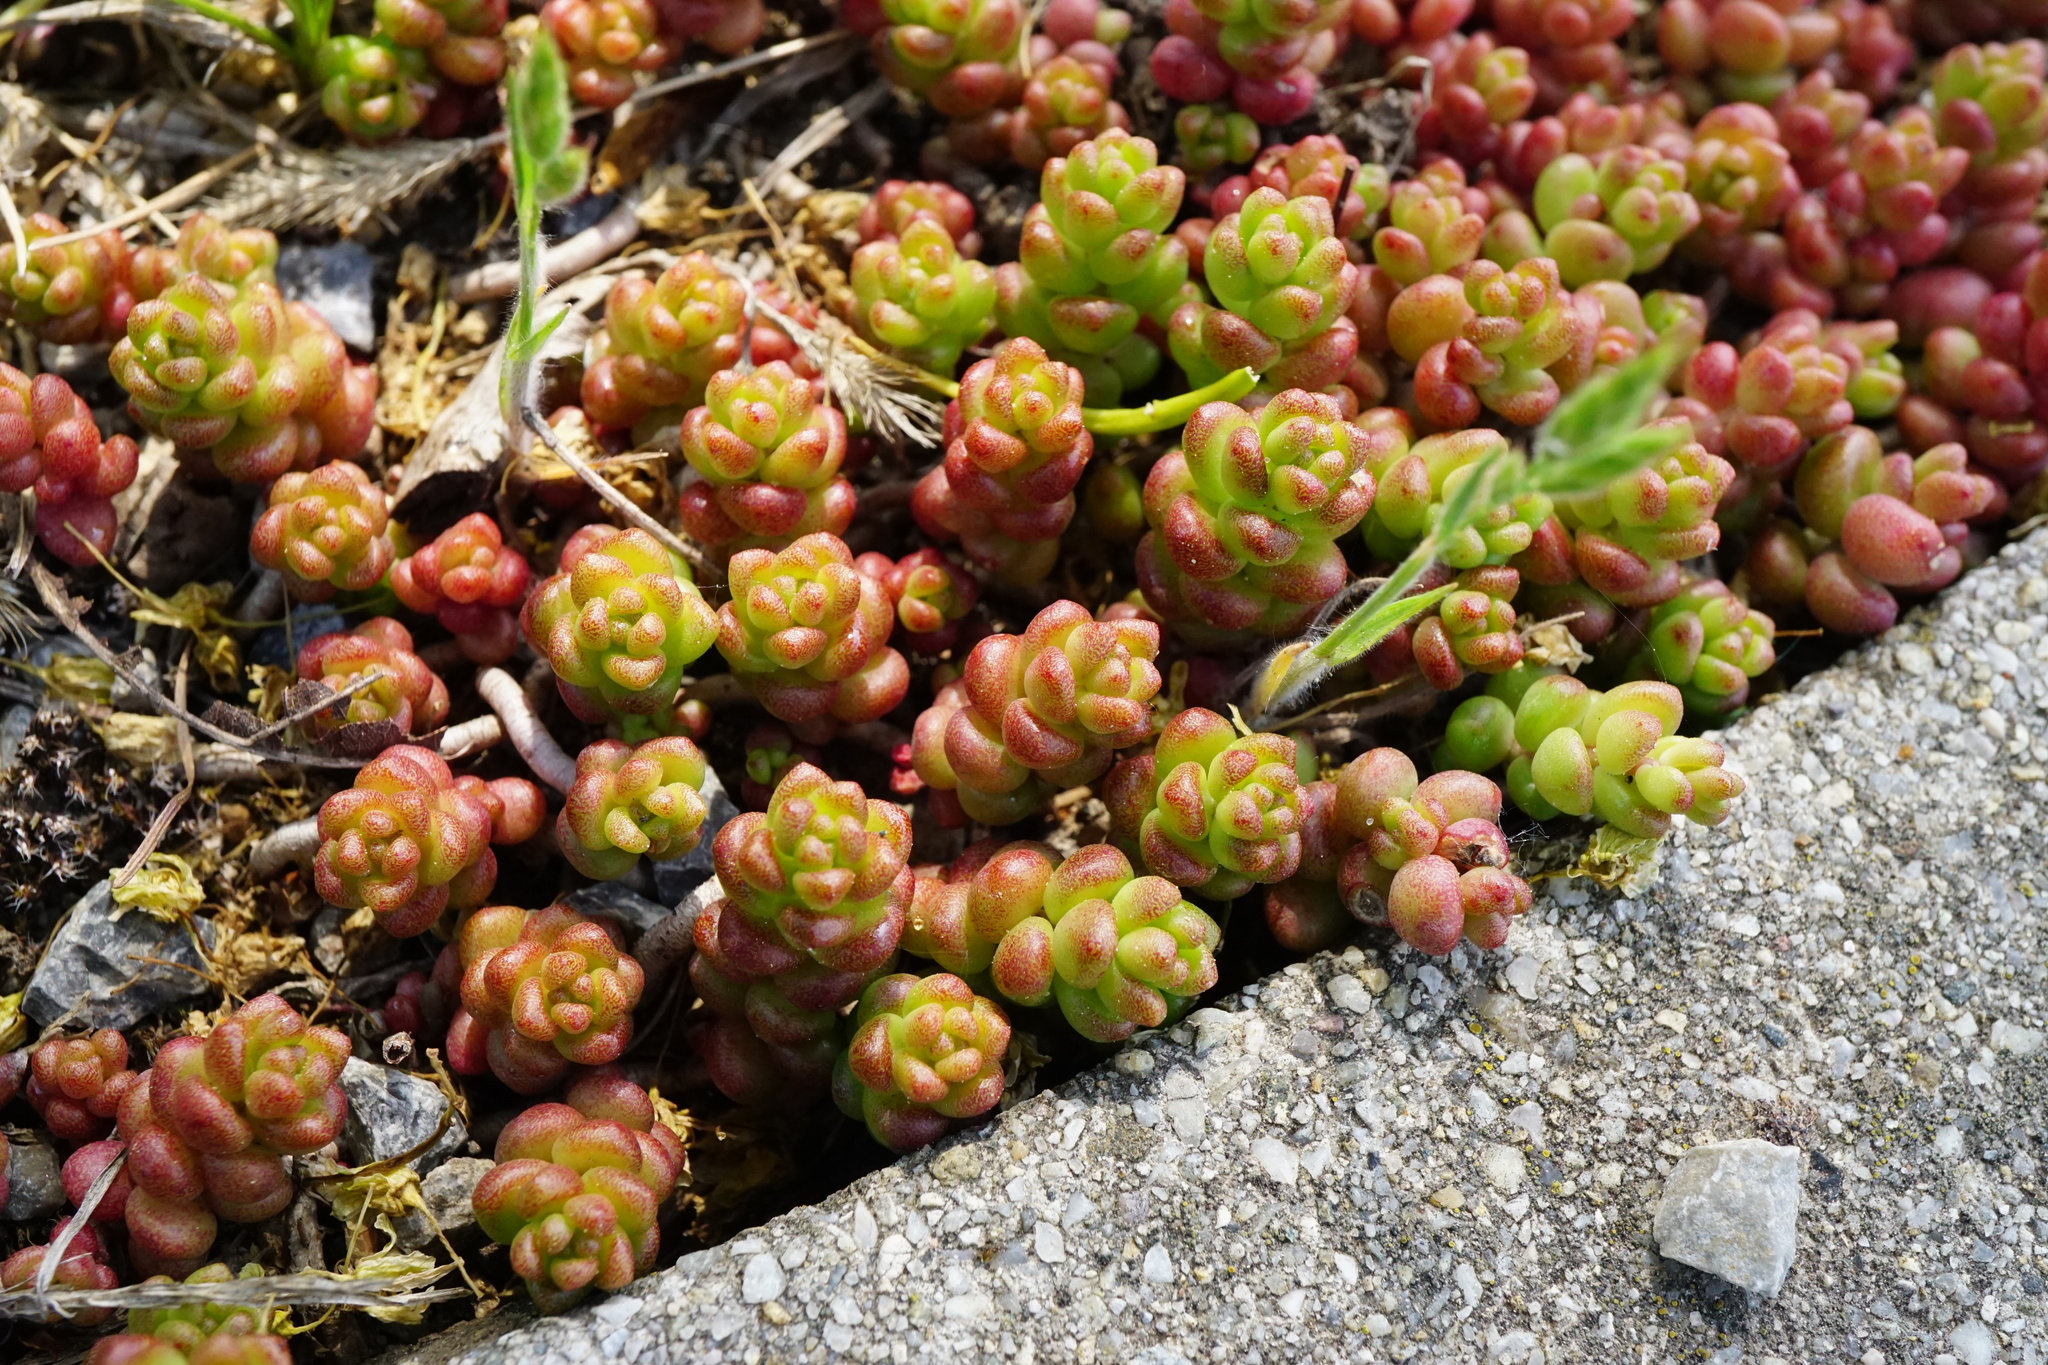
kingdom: Plantae
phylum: Tracheophyta
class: Magnoliopsida
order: Saxifragales
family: Crassulaceae
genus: Sedum
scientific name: Sedum album
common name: White stonecrop
